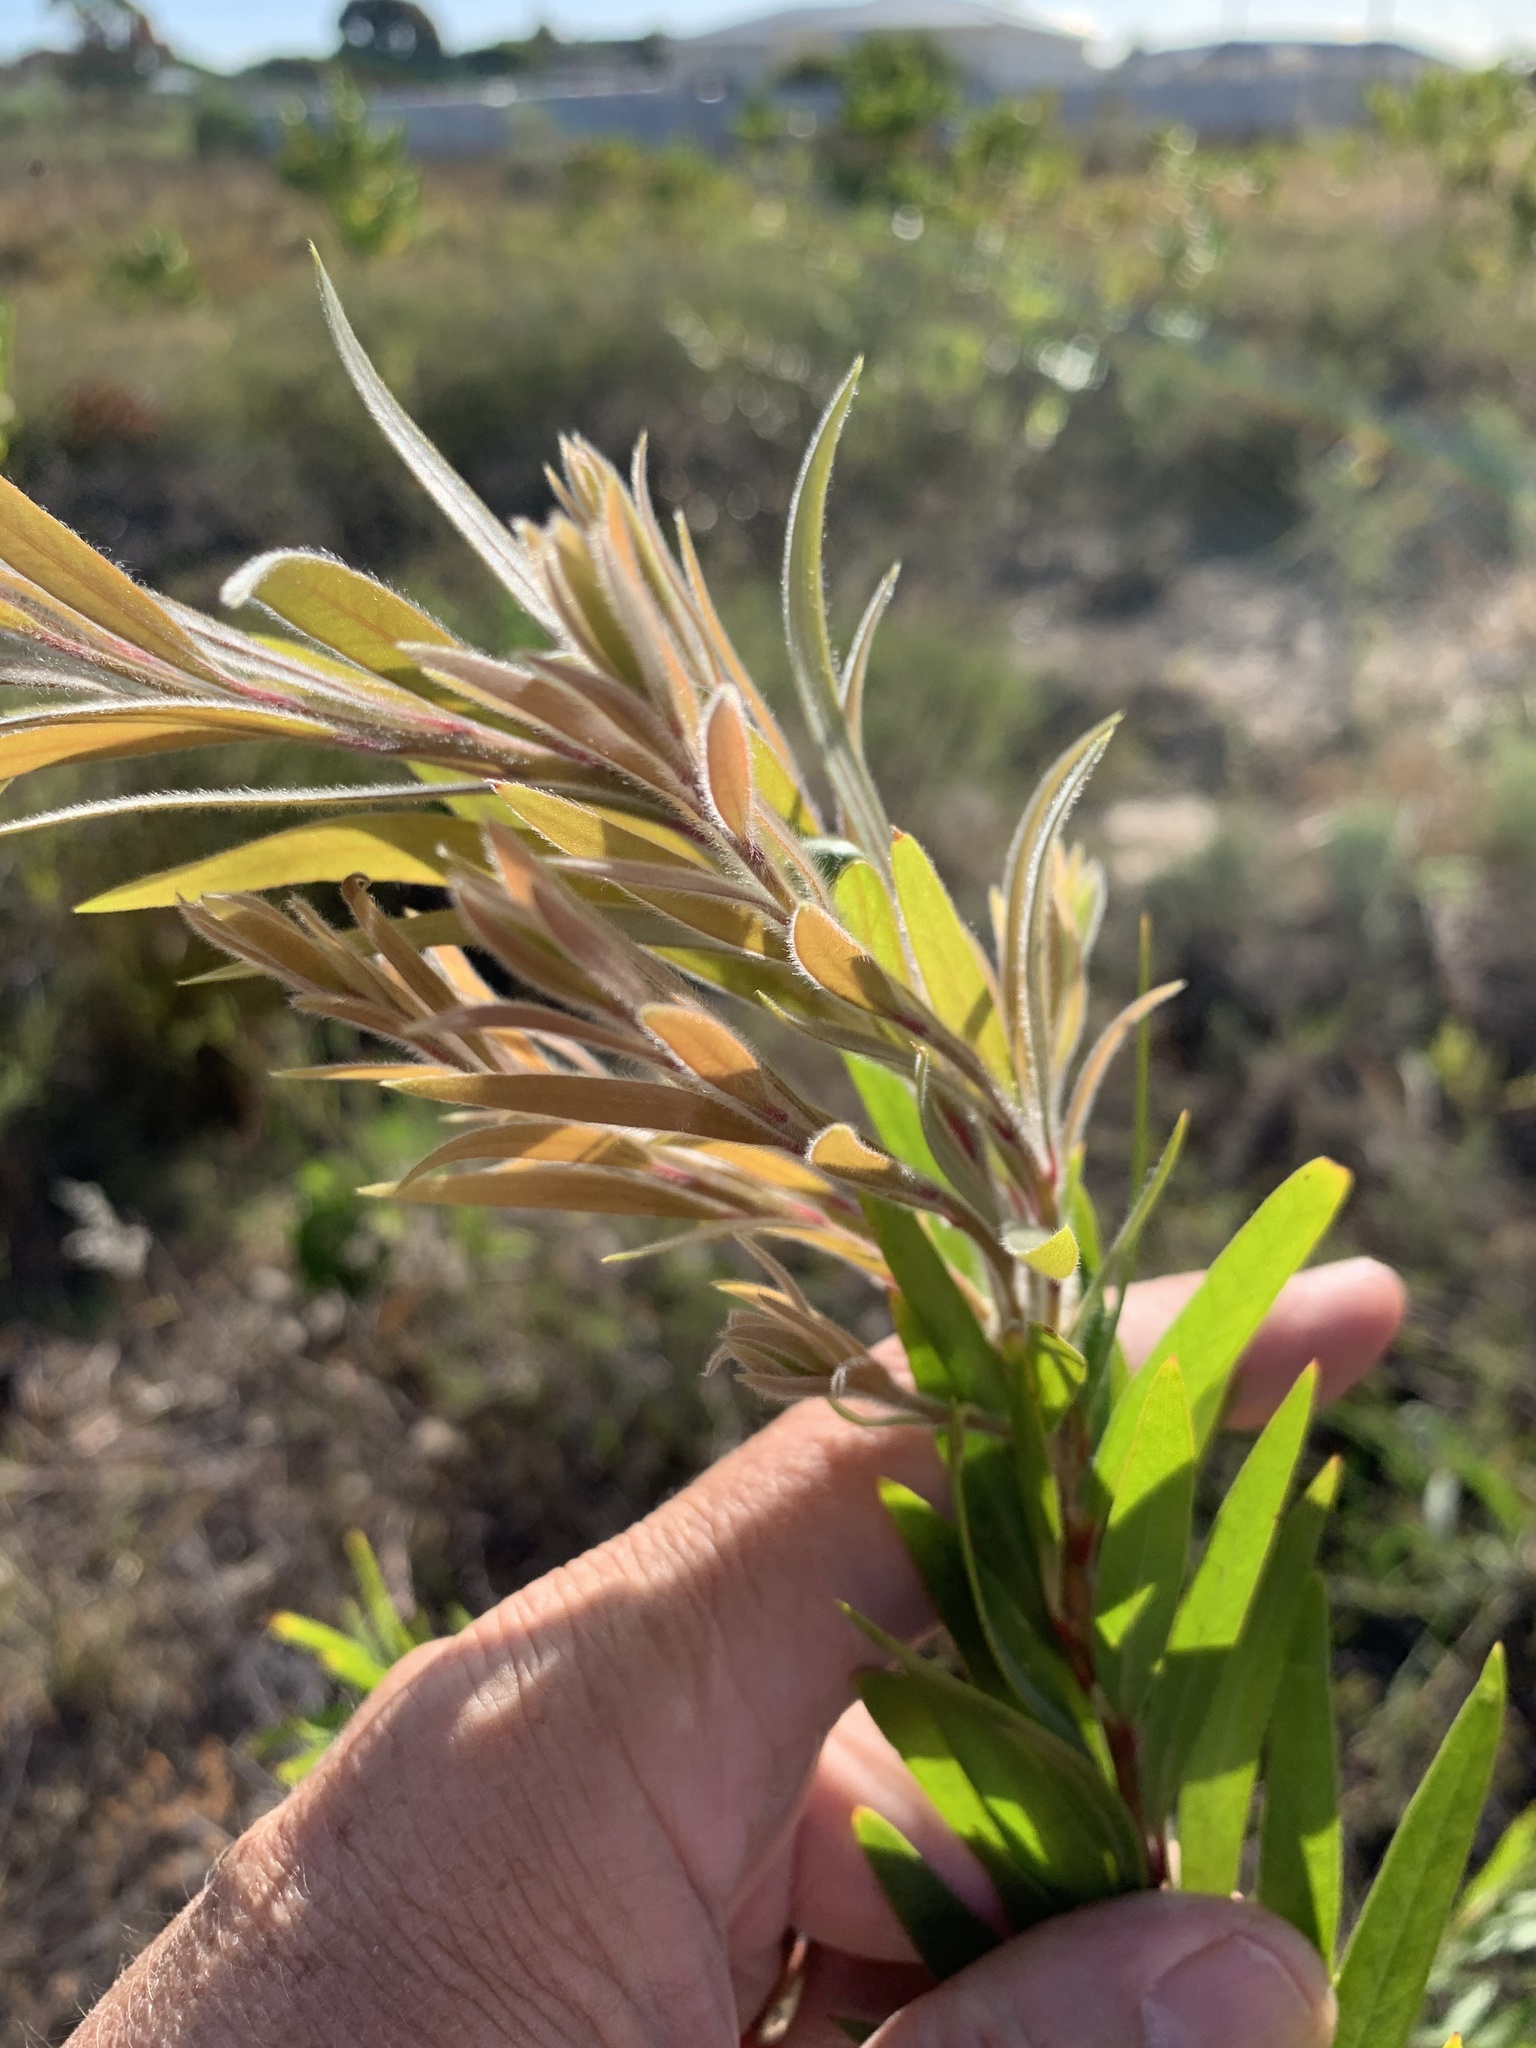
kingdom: Plantae
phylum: Tracheophyta
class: Magnoliopsida
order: Myrtales
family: Myrtaceae
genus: Callistemon
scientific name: Callistemon viminalis
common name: Drooping bottlebrush
